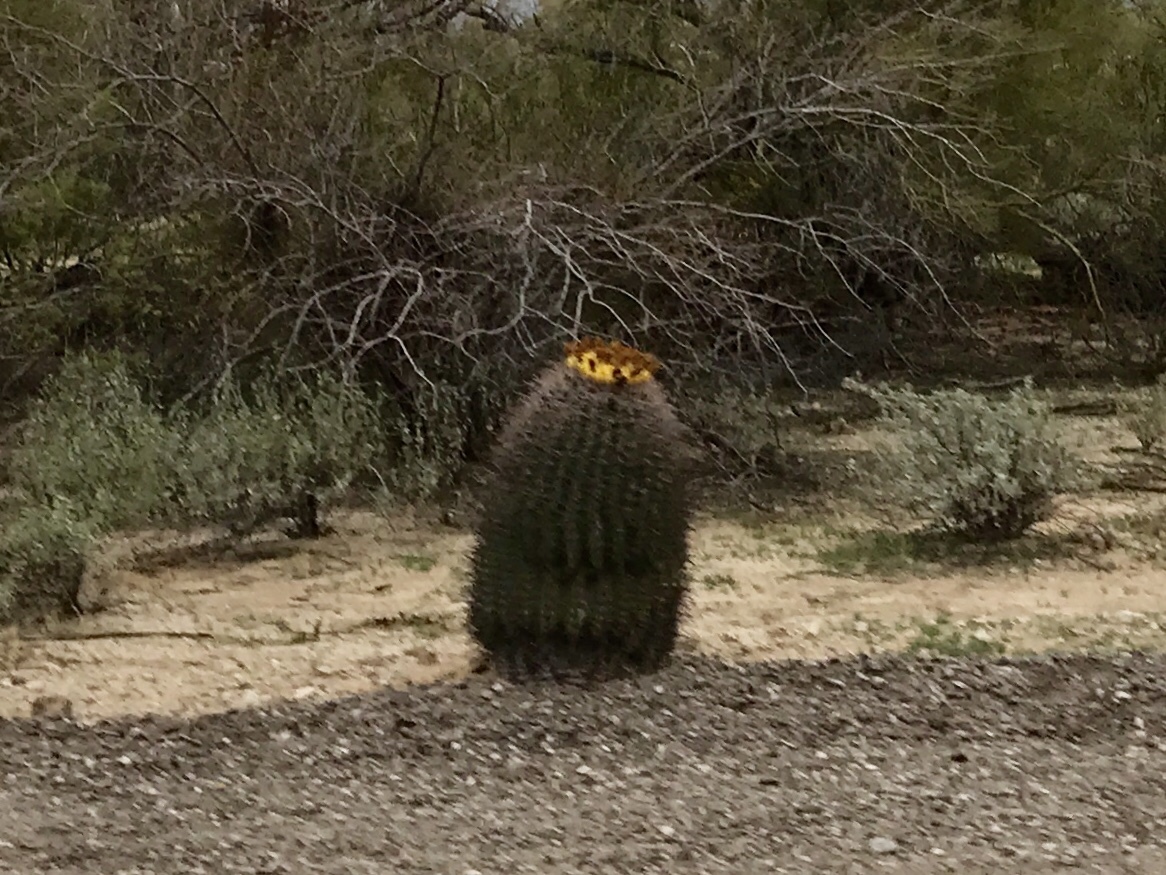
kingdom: Plantae
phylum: Tracheophyta
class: Magnoliopsida
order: Caryophyllales
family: Cactaceae
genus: Ferocactus
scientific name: Ferocactus wislizeni
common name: Candy barrel cactus
